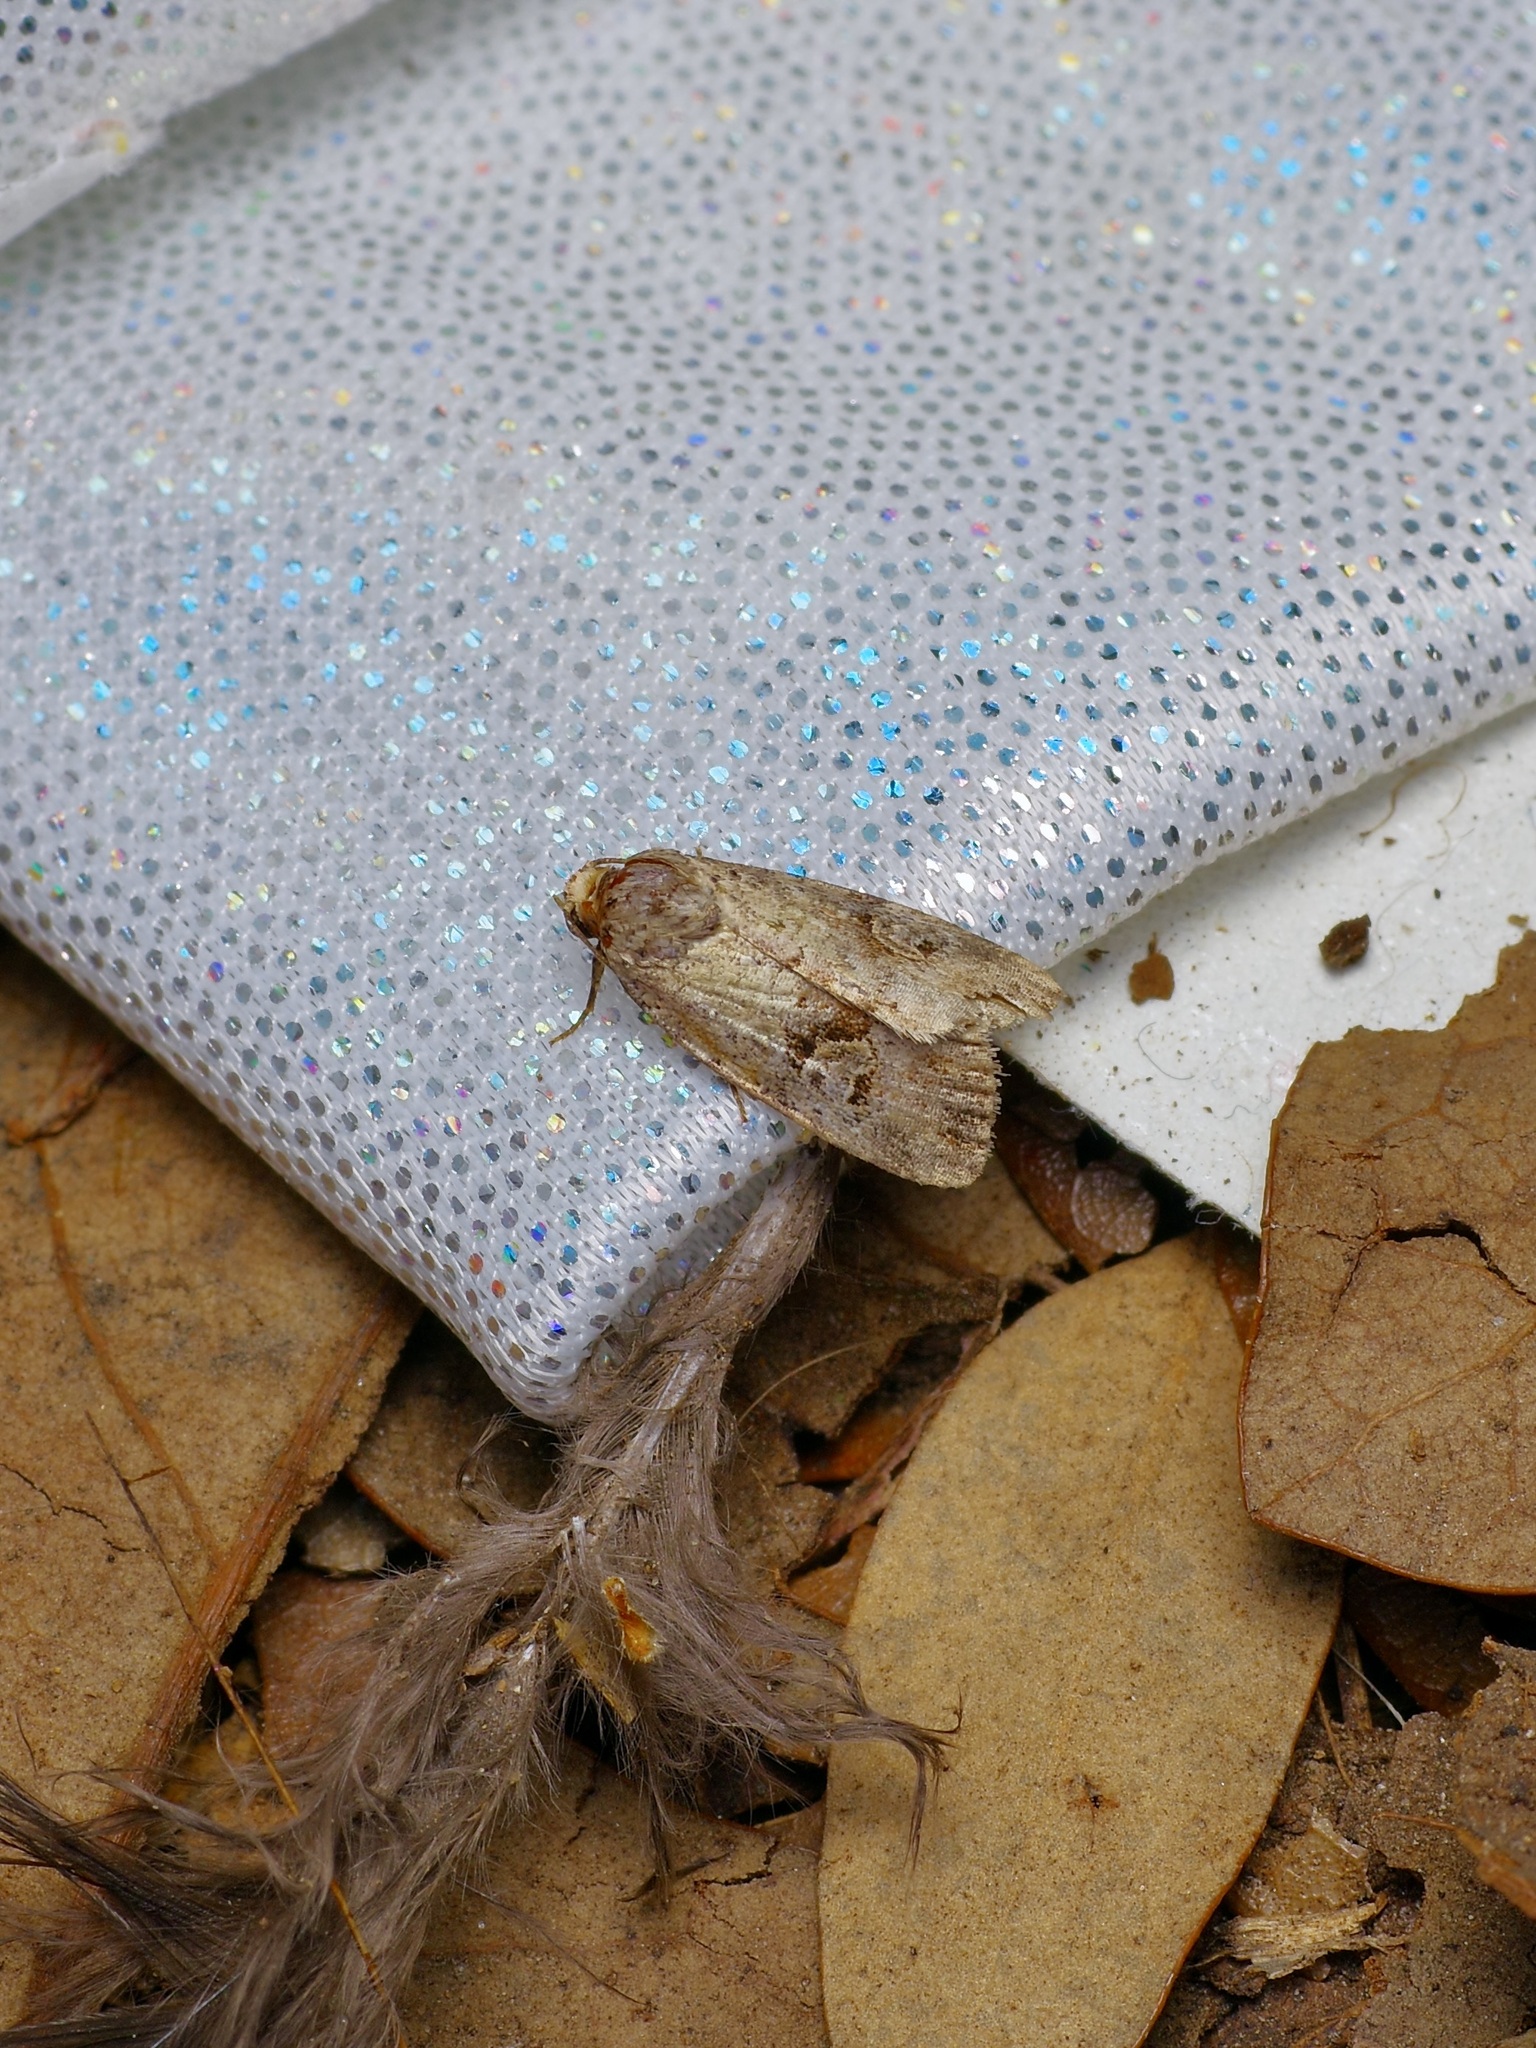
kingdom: Animalia
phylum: Arthropoda
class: Insecta
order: Lepidoptera
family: Noctuidae
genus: Elaphria
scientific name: Elaphria festivoides
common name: Festive midget
